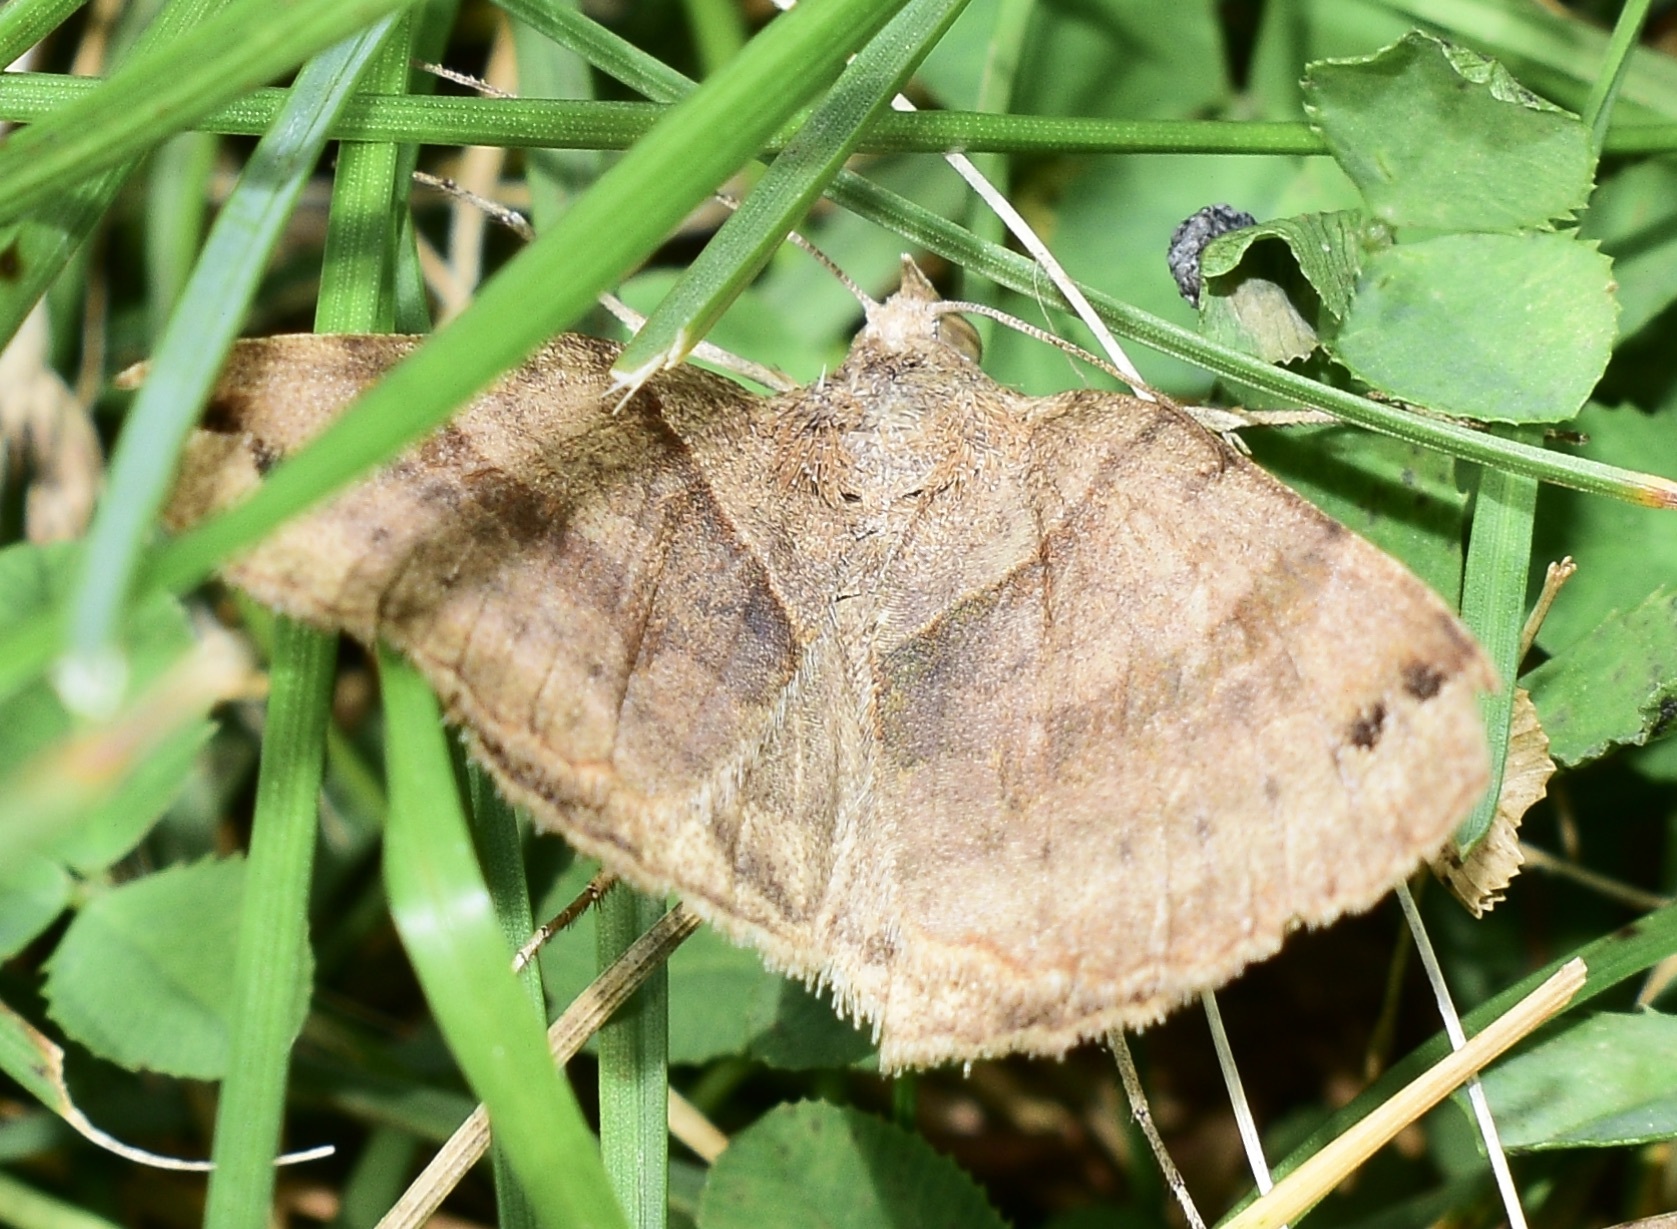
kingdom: Animalia
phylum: Arthropoda
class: Insecta
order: Lepidoptera
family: Erebidae
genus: Caenurgina
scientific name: Caenurgina crassiuscula
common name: Double-barred
